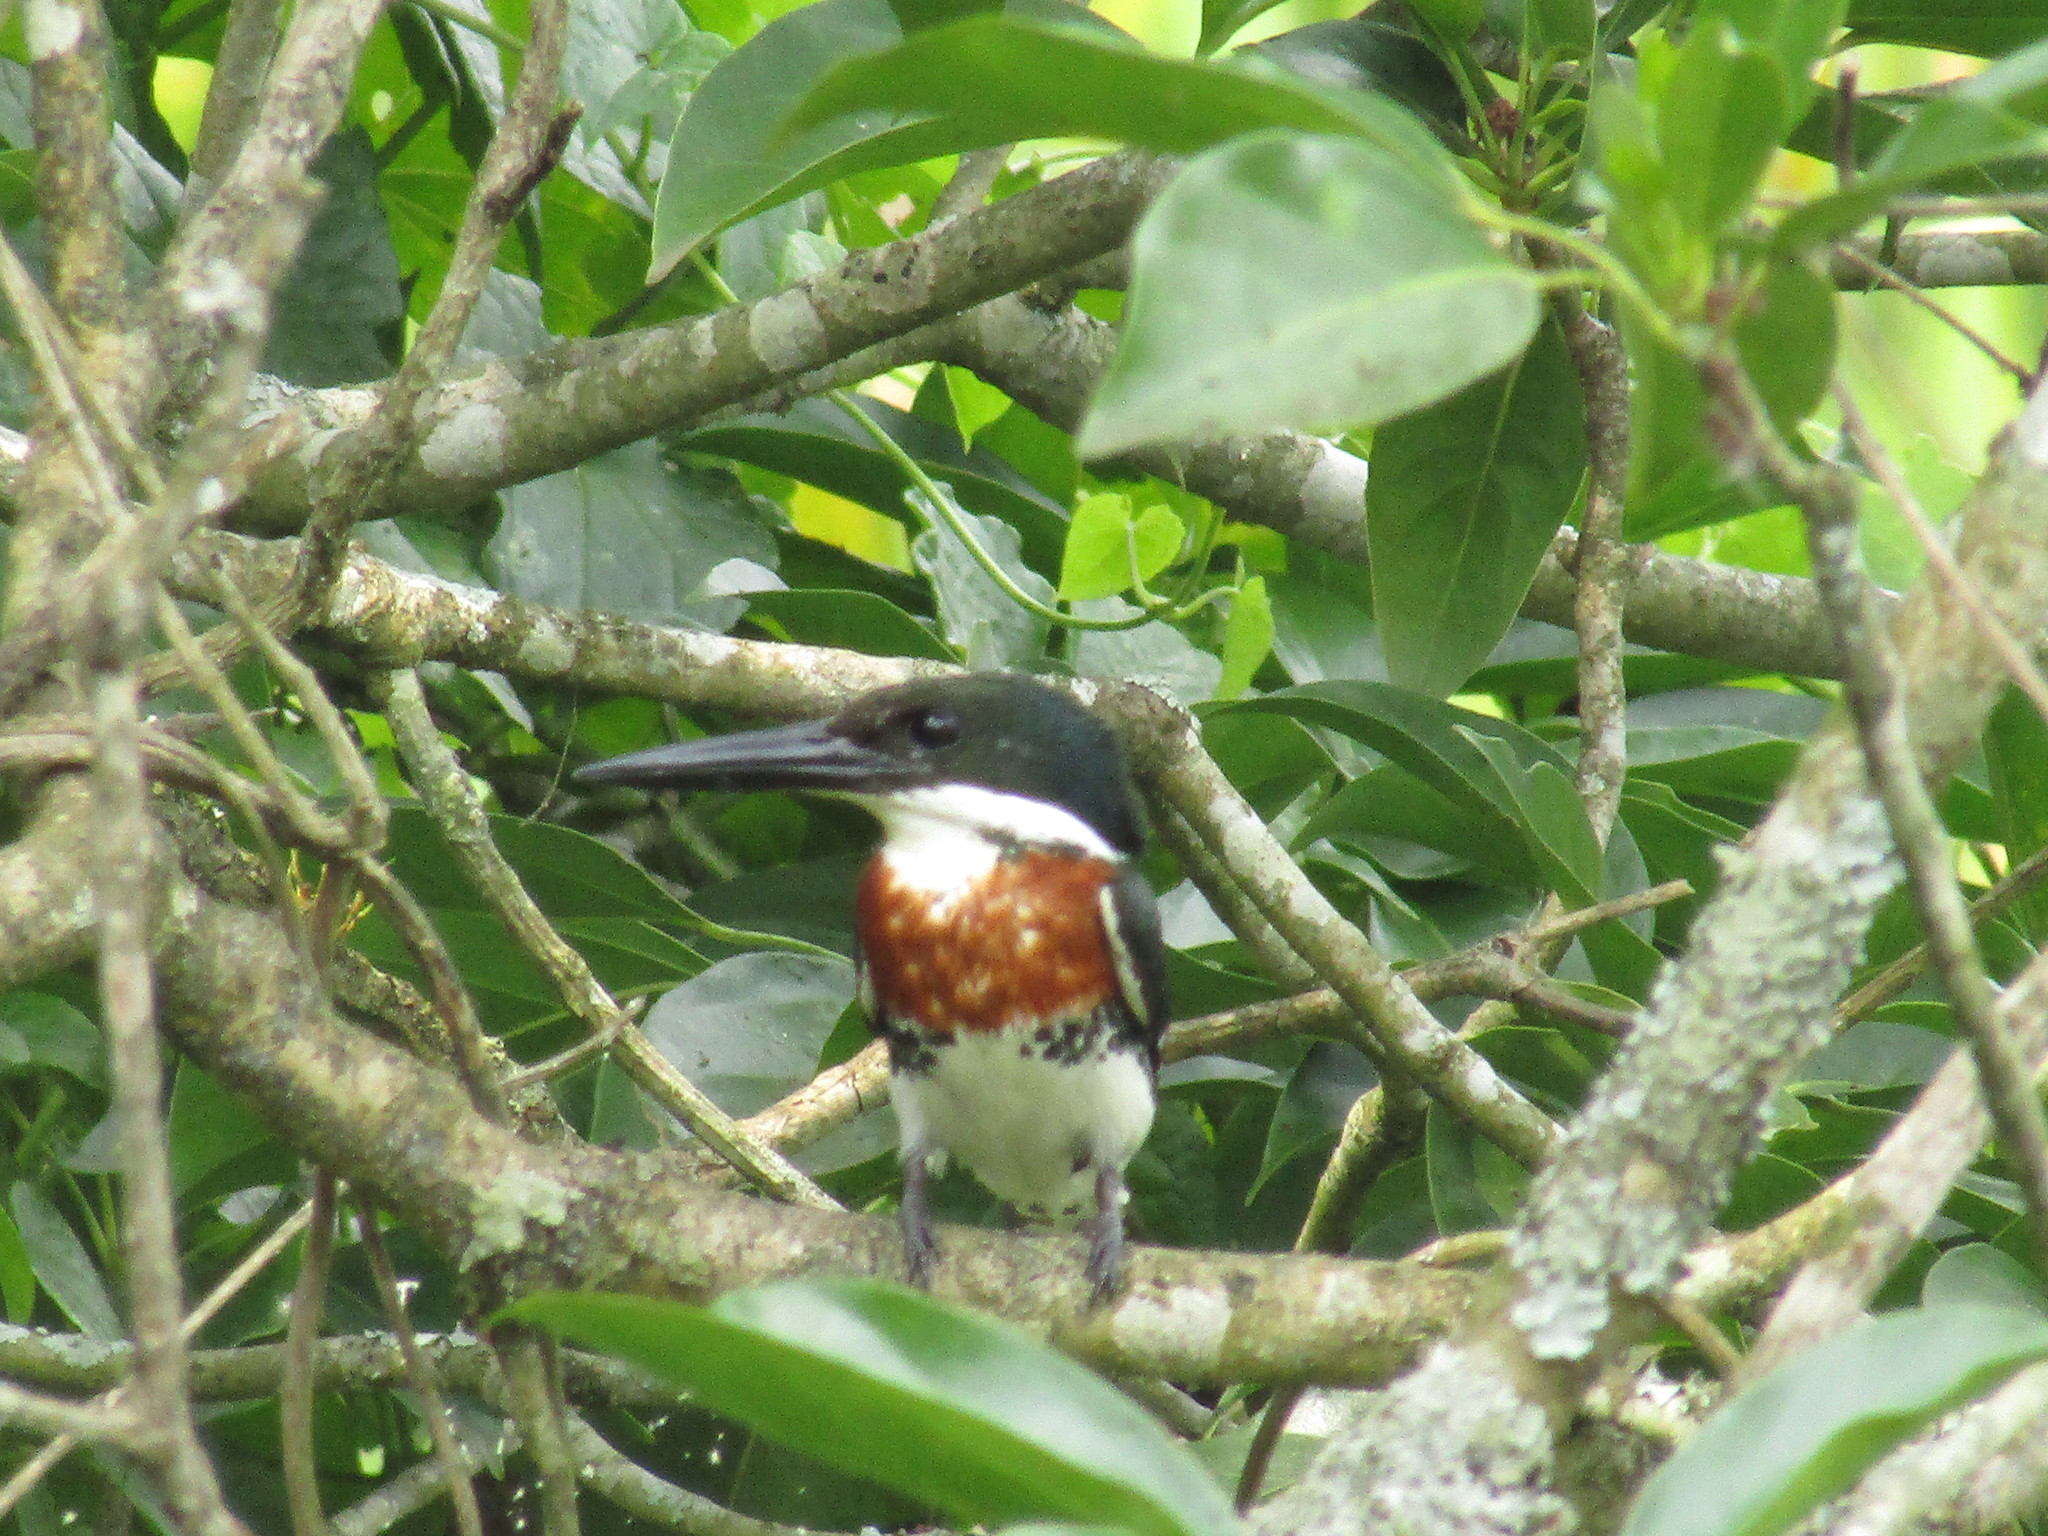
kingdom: Animalia
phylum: Chordata
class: Aves
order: Coraciiformes
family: Alcedinidae
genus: Chloroceryle
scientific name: Chloroceryle americana
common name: Green kingfisher
